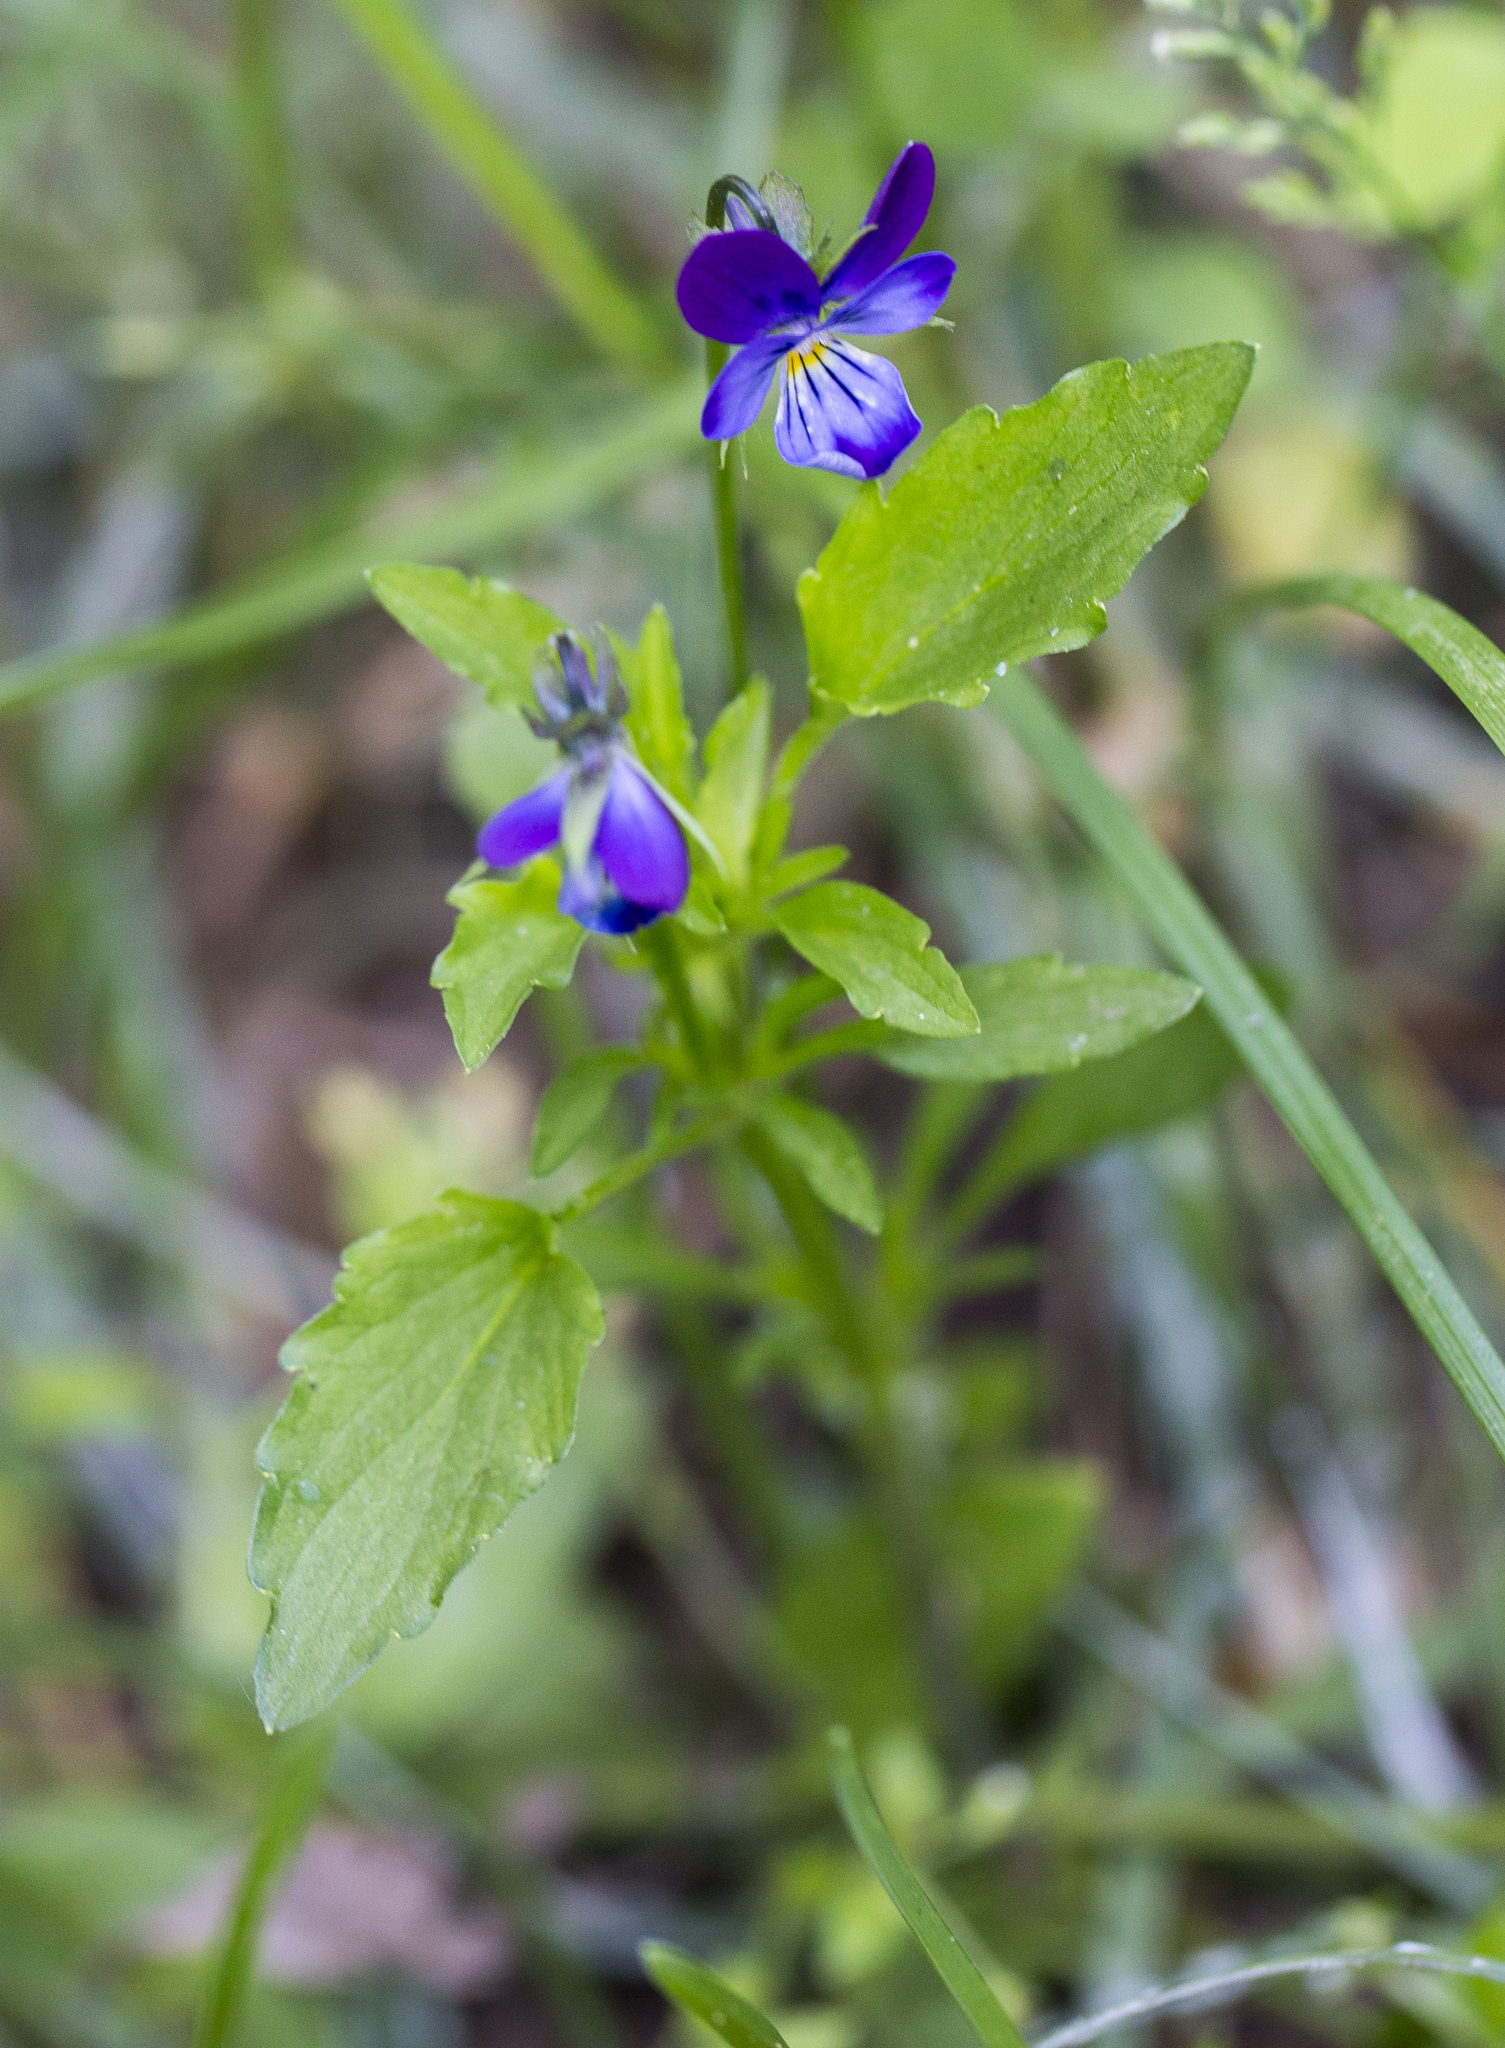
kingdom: Plantae
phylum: Tracheophyta
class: Magnoliopsida
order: Malpighiales
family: Violaceae
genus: Viola
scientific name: Viola tricolor
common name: Pansy
